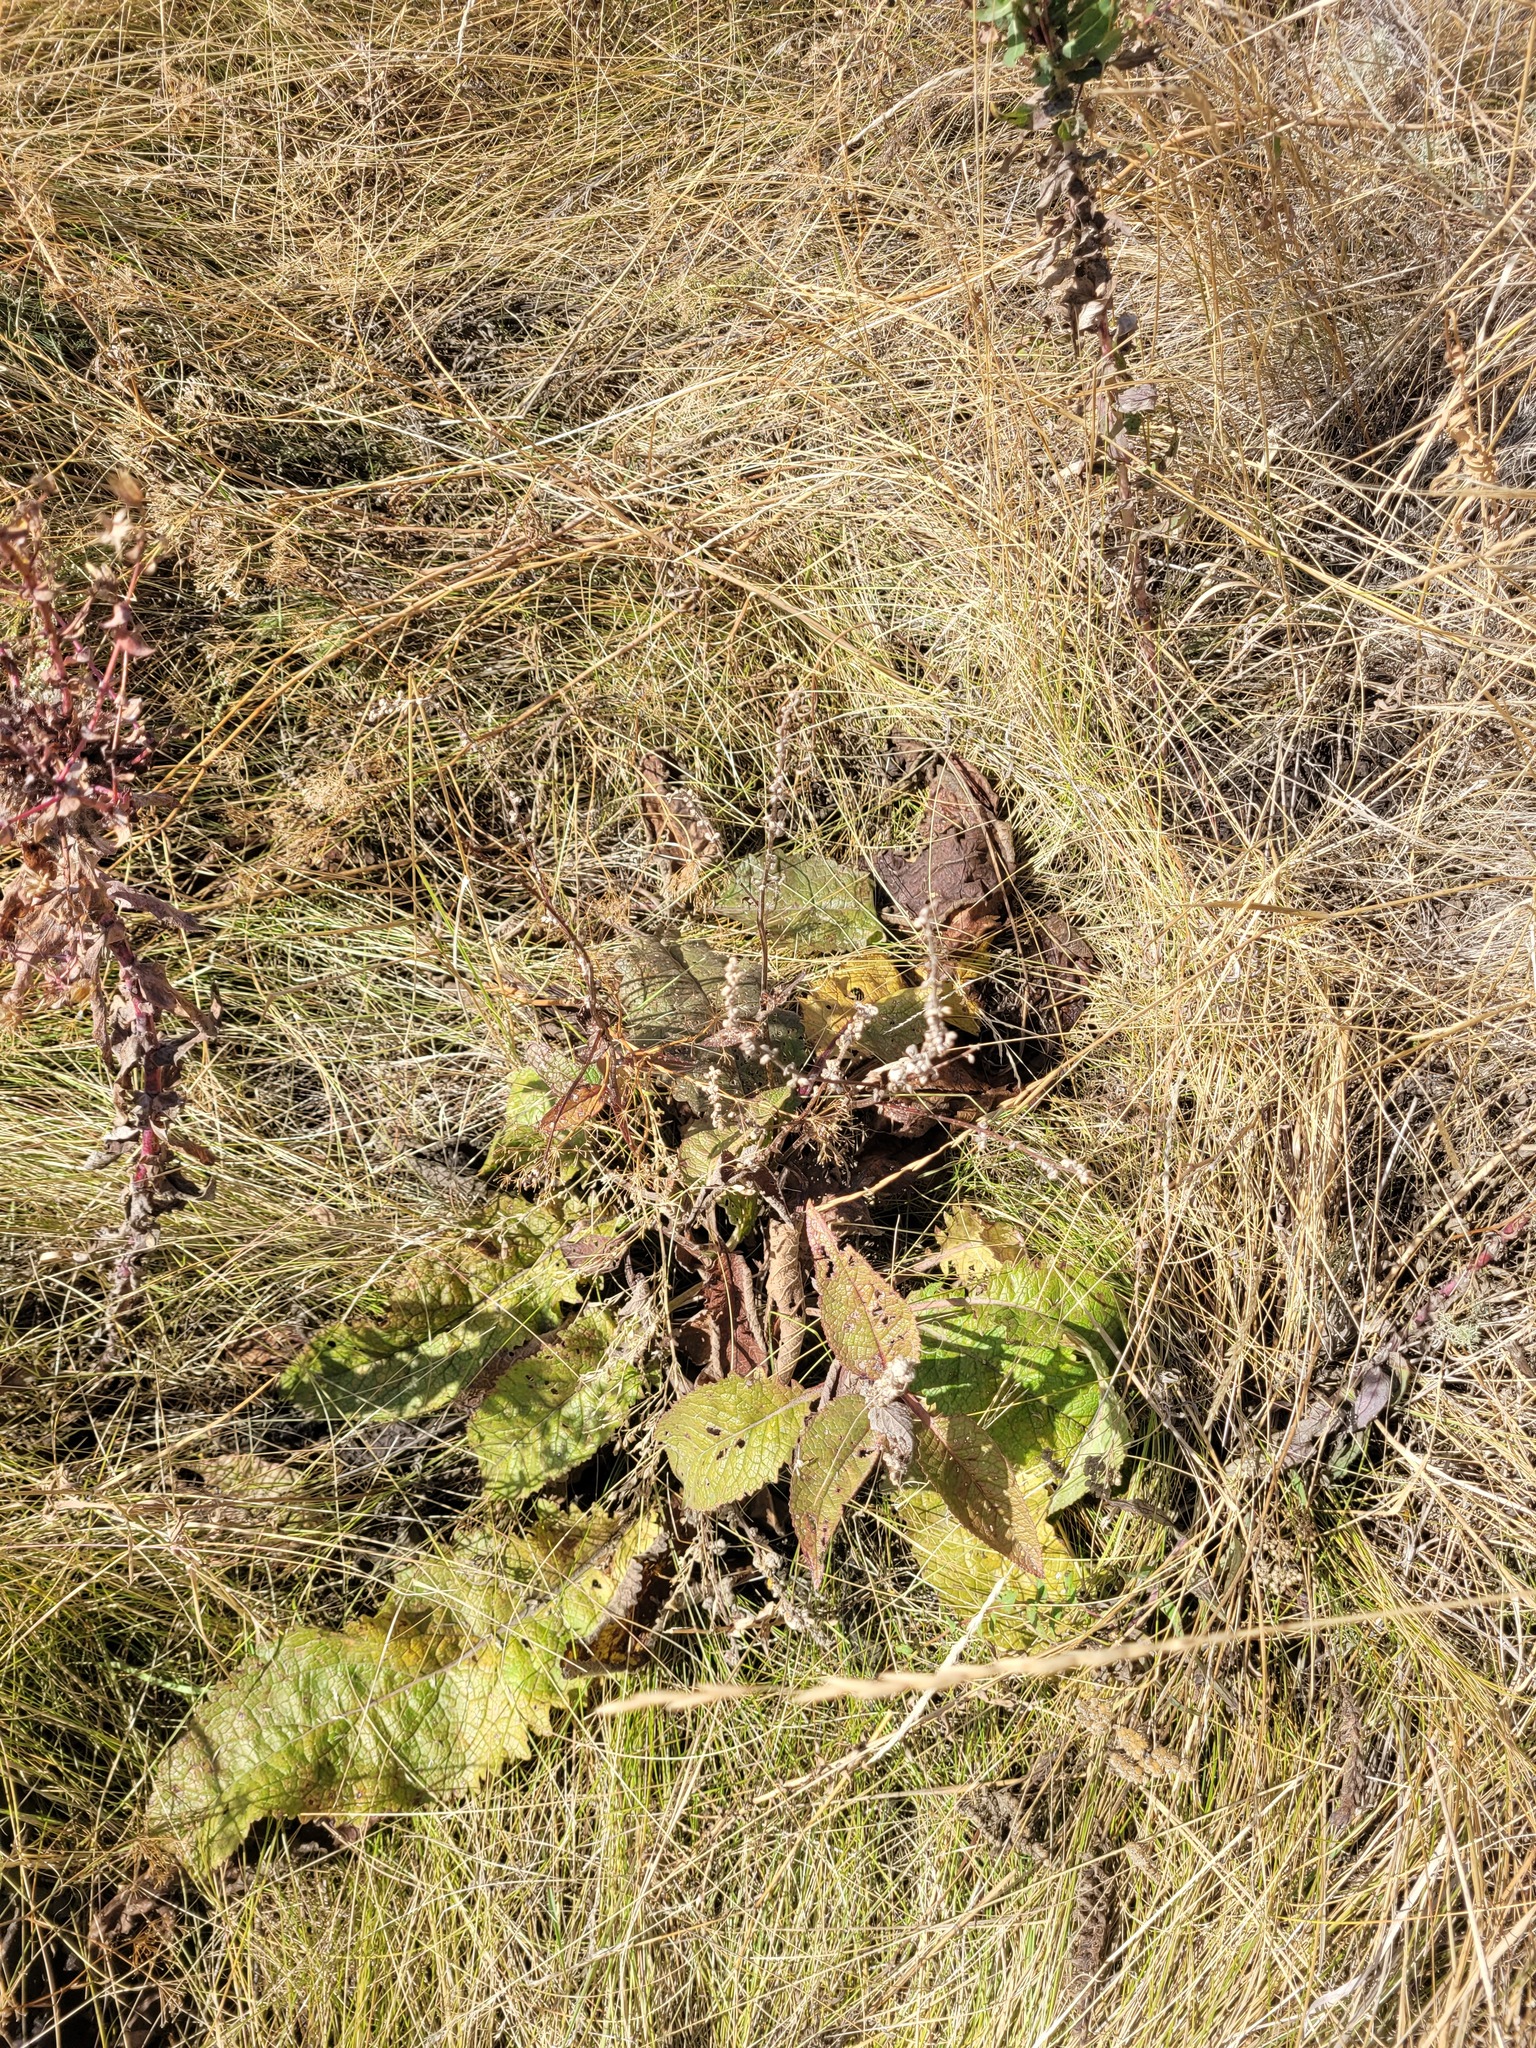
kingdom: Plantae
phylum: Tracheophyta
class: Magnoliopsida
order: Lamiales
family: Scrophulariaceae
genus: Verbascum
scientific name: Verbascum chaixii
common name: Nettle-leaved mullein
